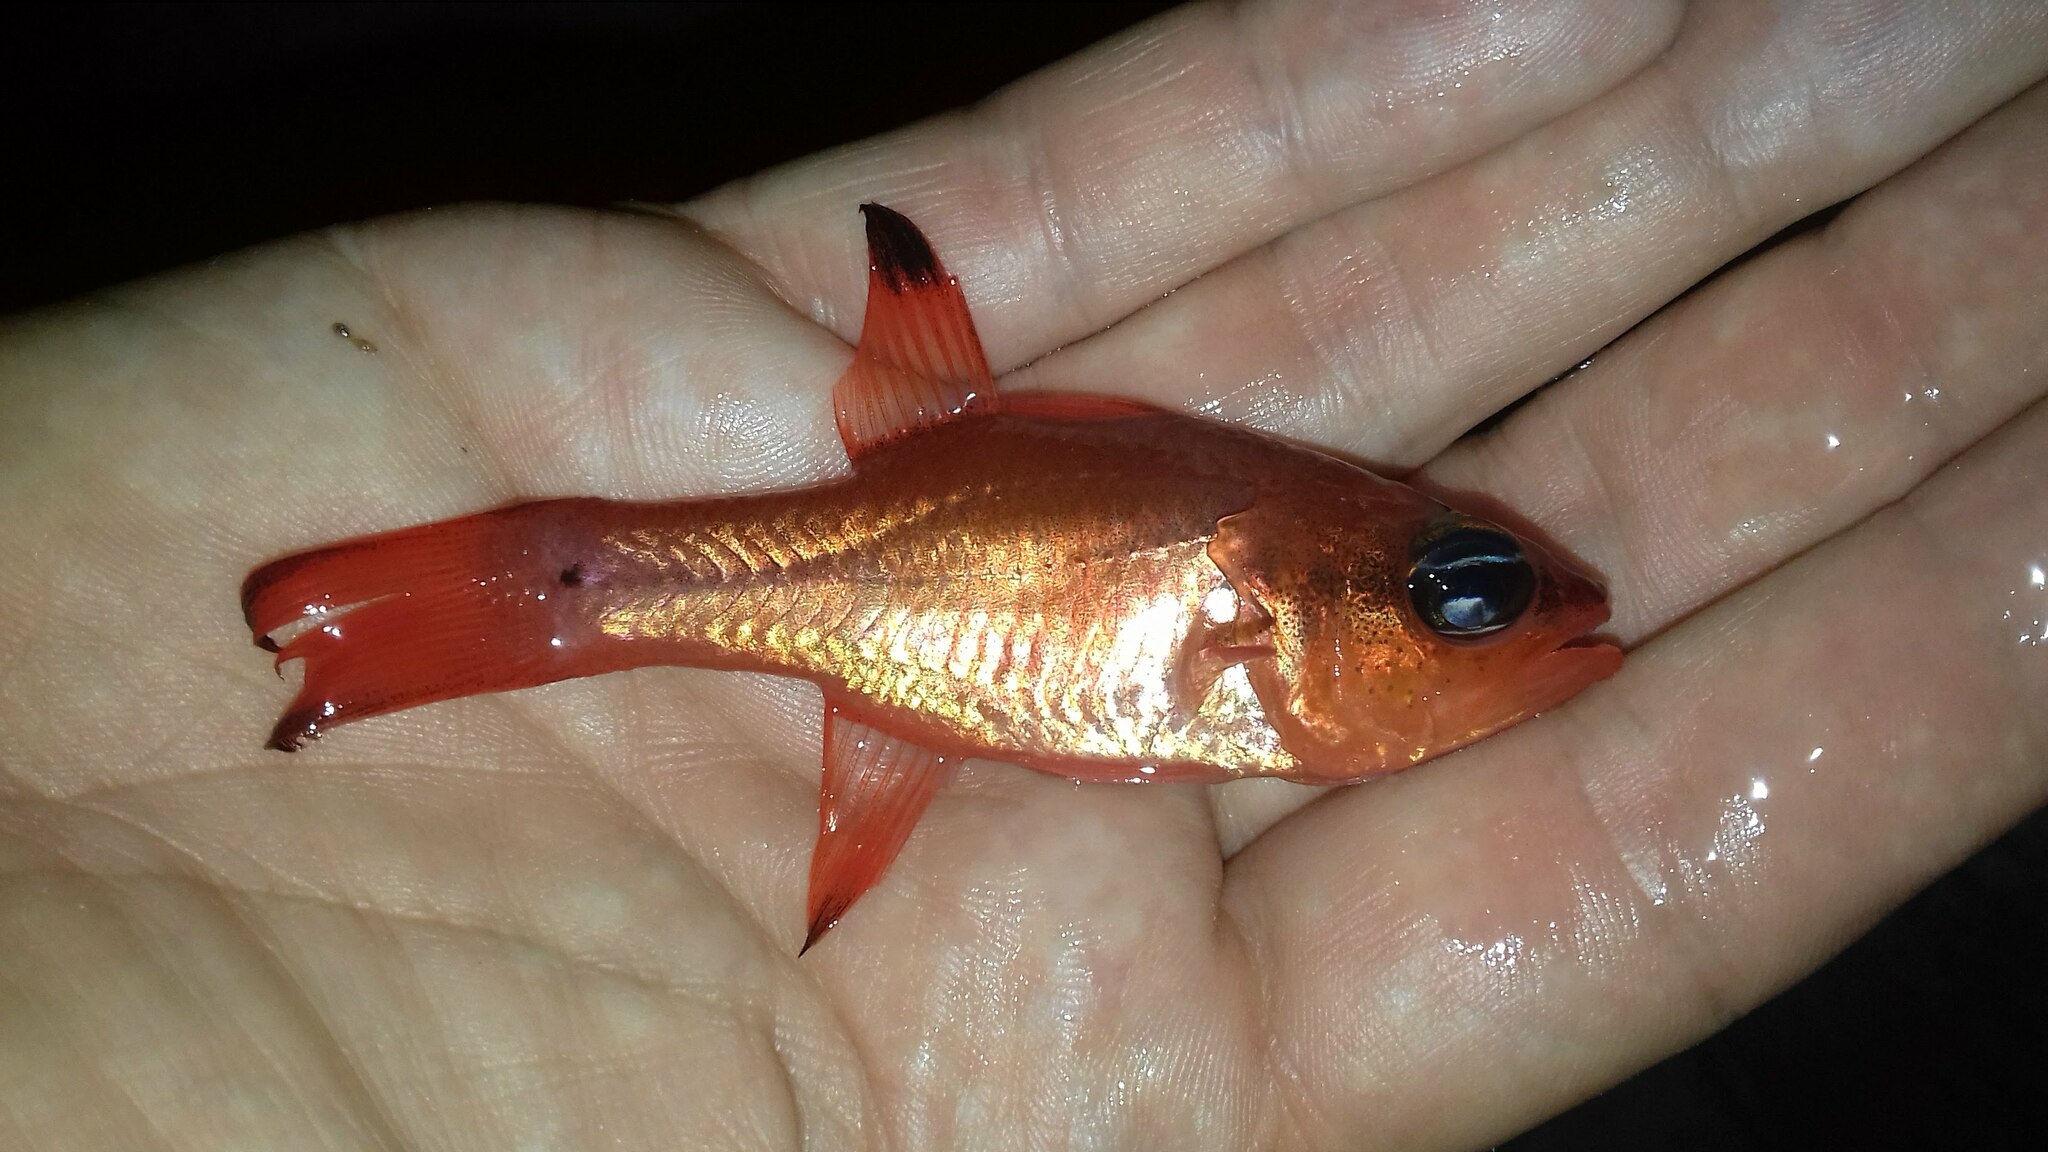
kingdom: Animalia
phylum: Chordata
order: Perciformes
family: Apogonidae
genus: Apogon
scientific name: Apogon imberbis
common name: Cardinal fish
